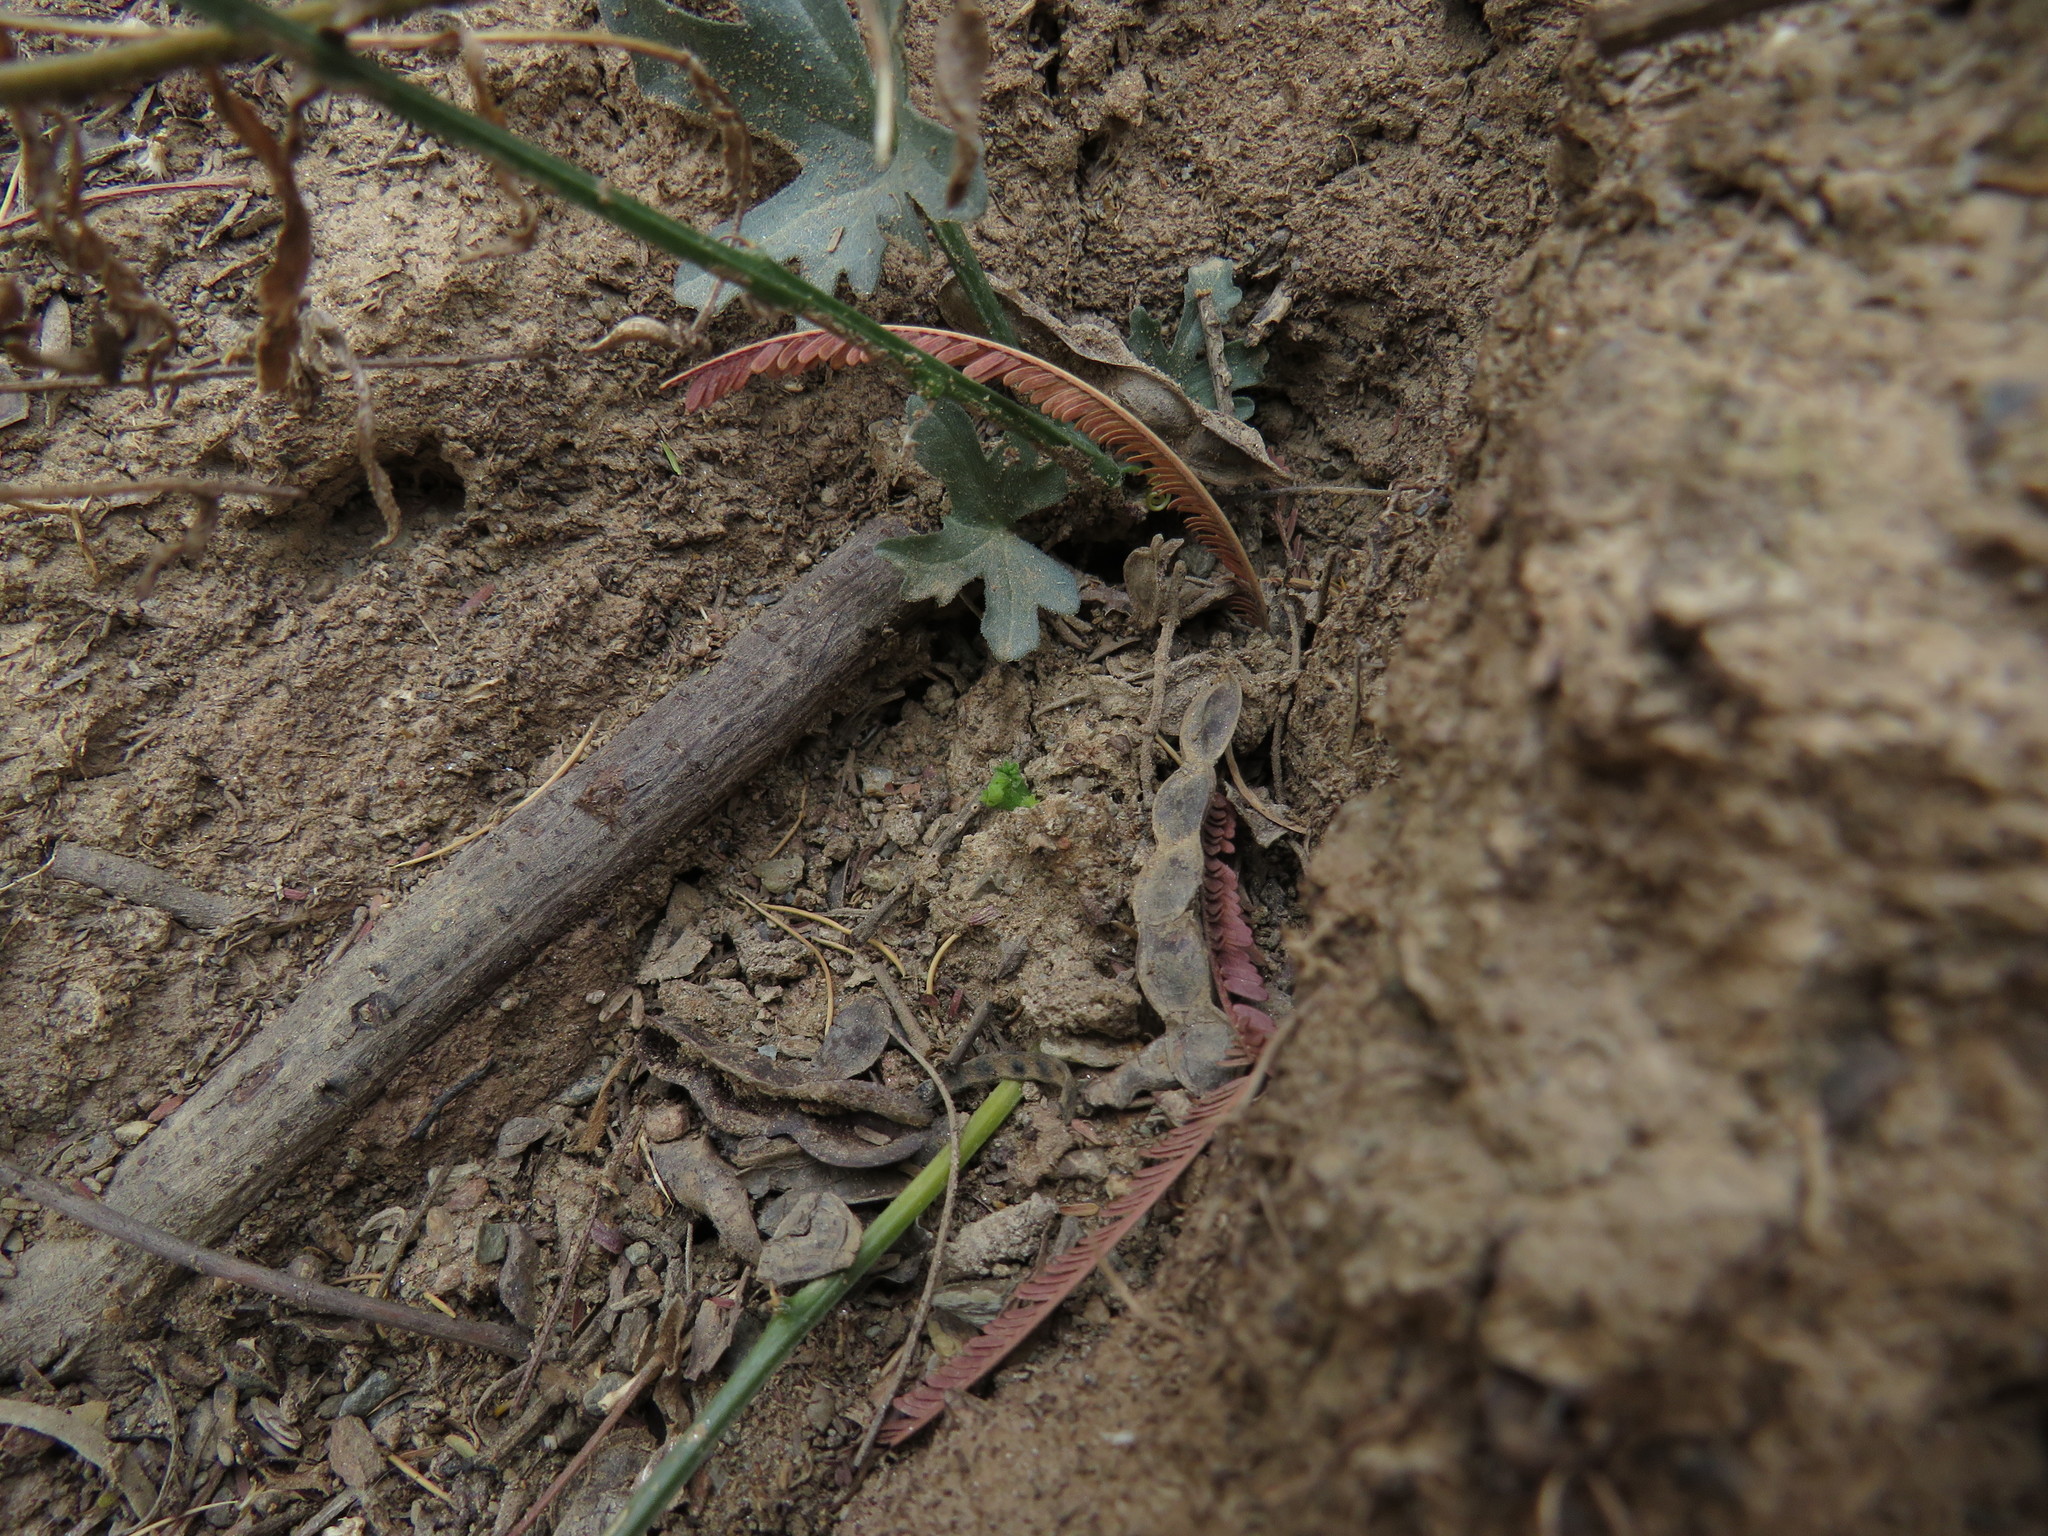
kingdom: Plantae
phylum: Tracheophyta
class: Magnoliopsida
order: Cucurbitales
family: Cucurbitaceae
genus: Kedrostis
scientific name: Kedrostis capensis
